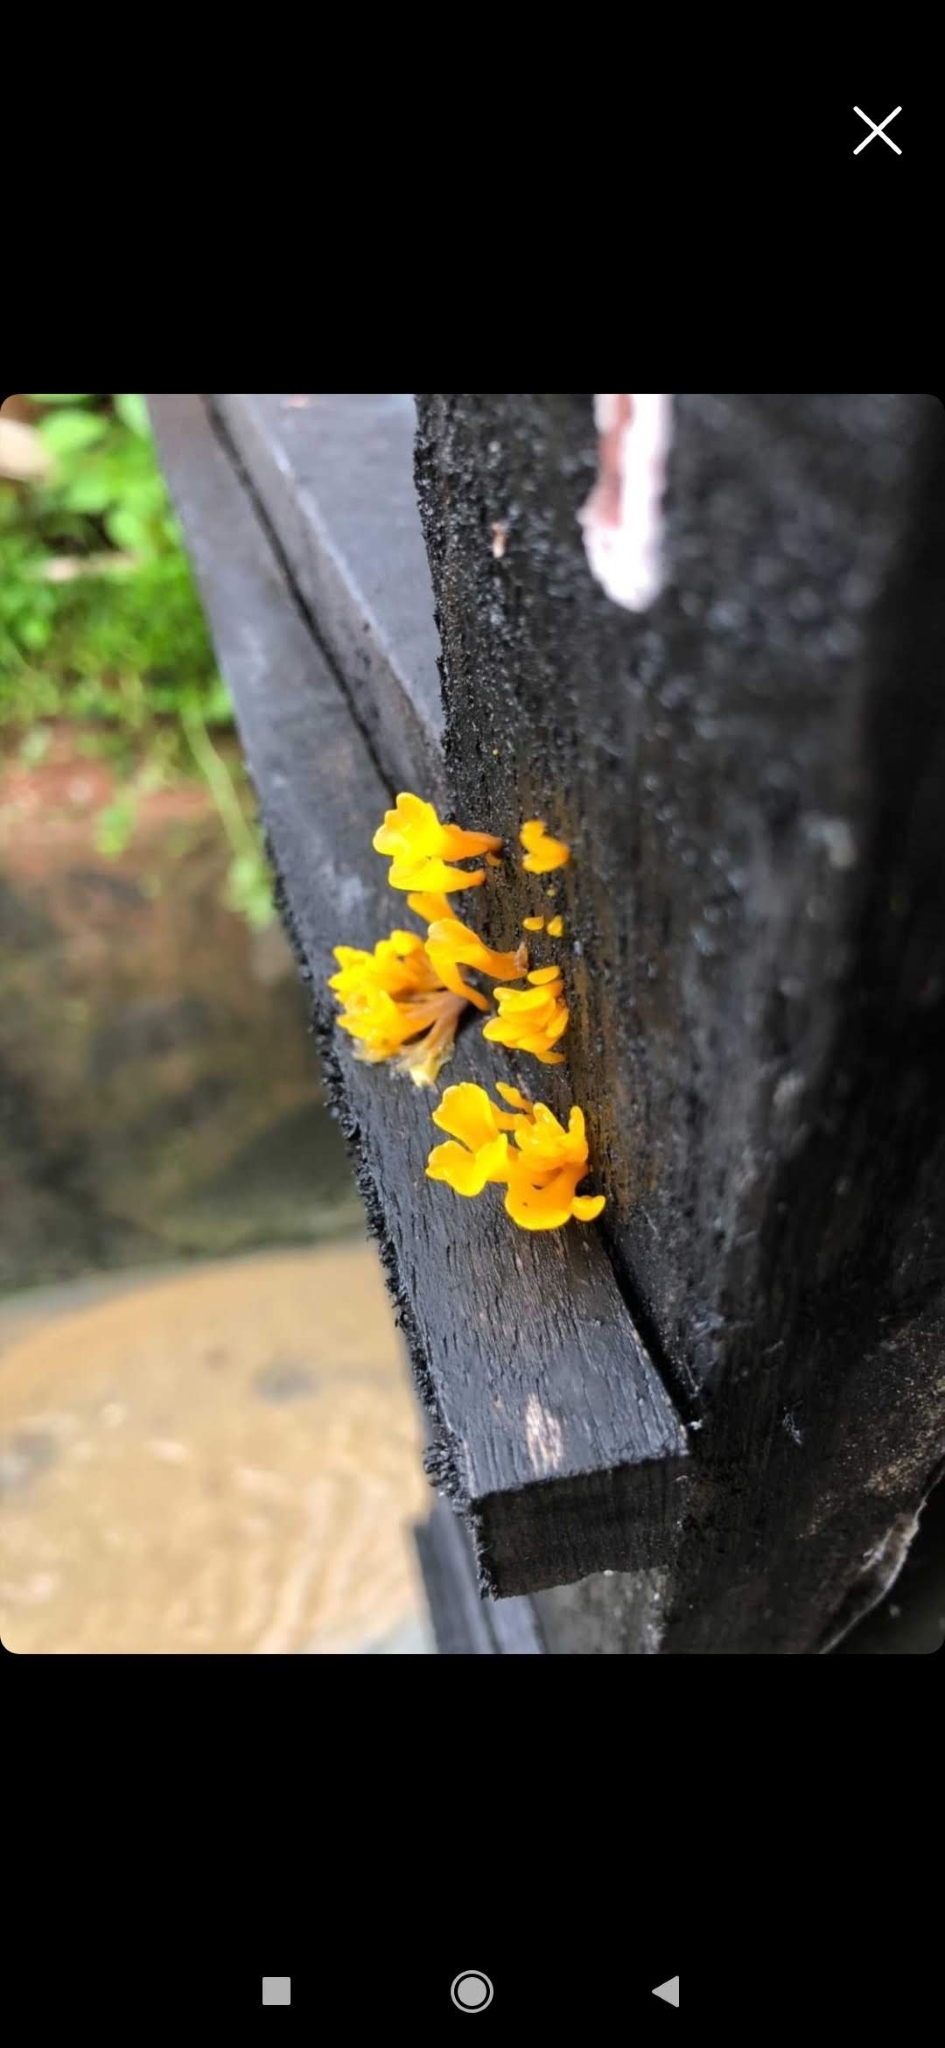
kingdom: Fungi
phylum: Basidiomycota
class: Dacrymycetes
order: Dacrymycetales
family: Dacrymycetaceae
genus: Dacrymyces
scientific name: Dacrymyces spathularius
